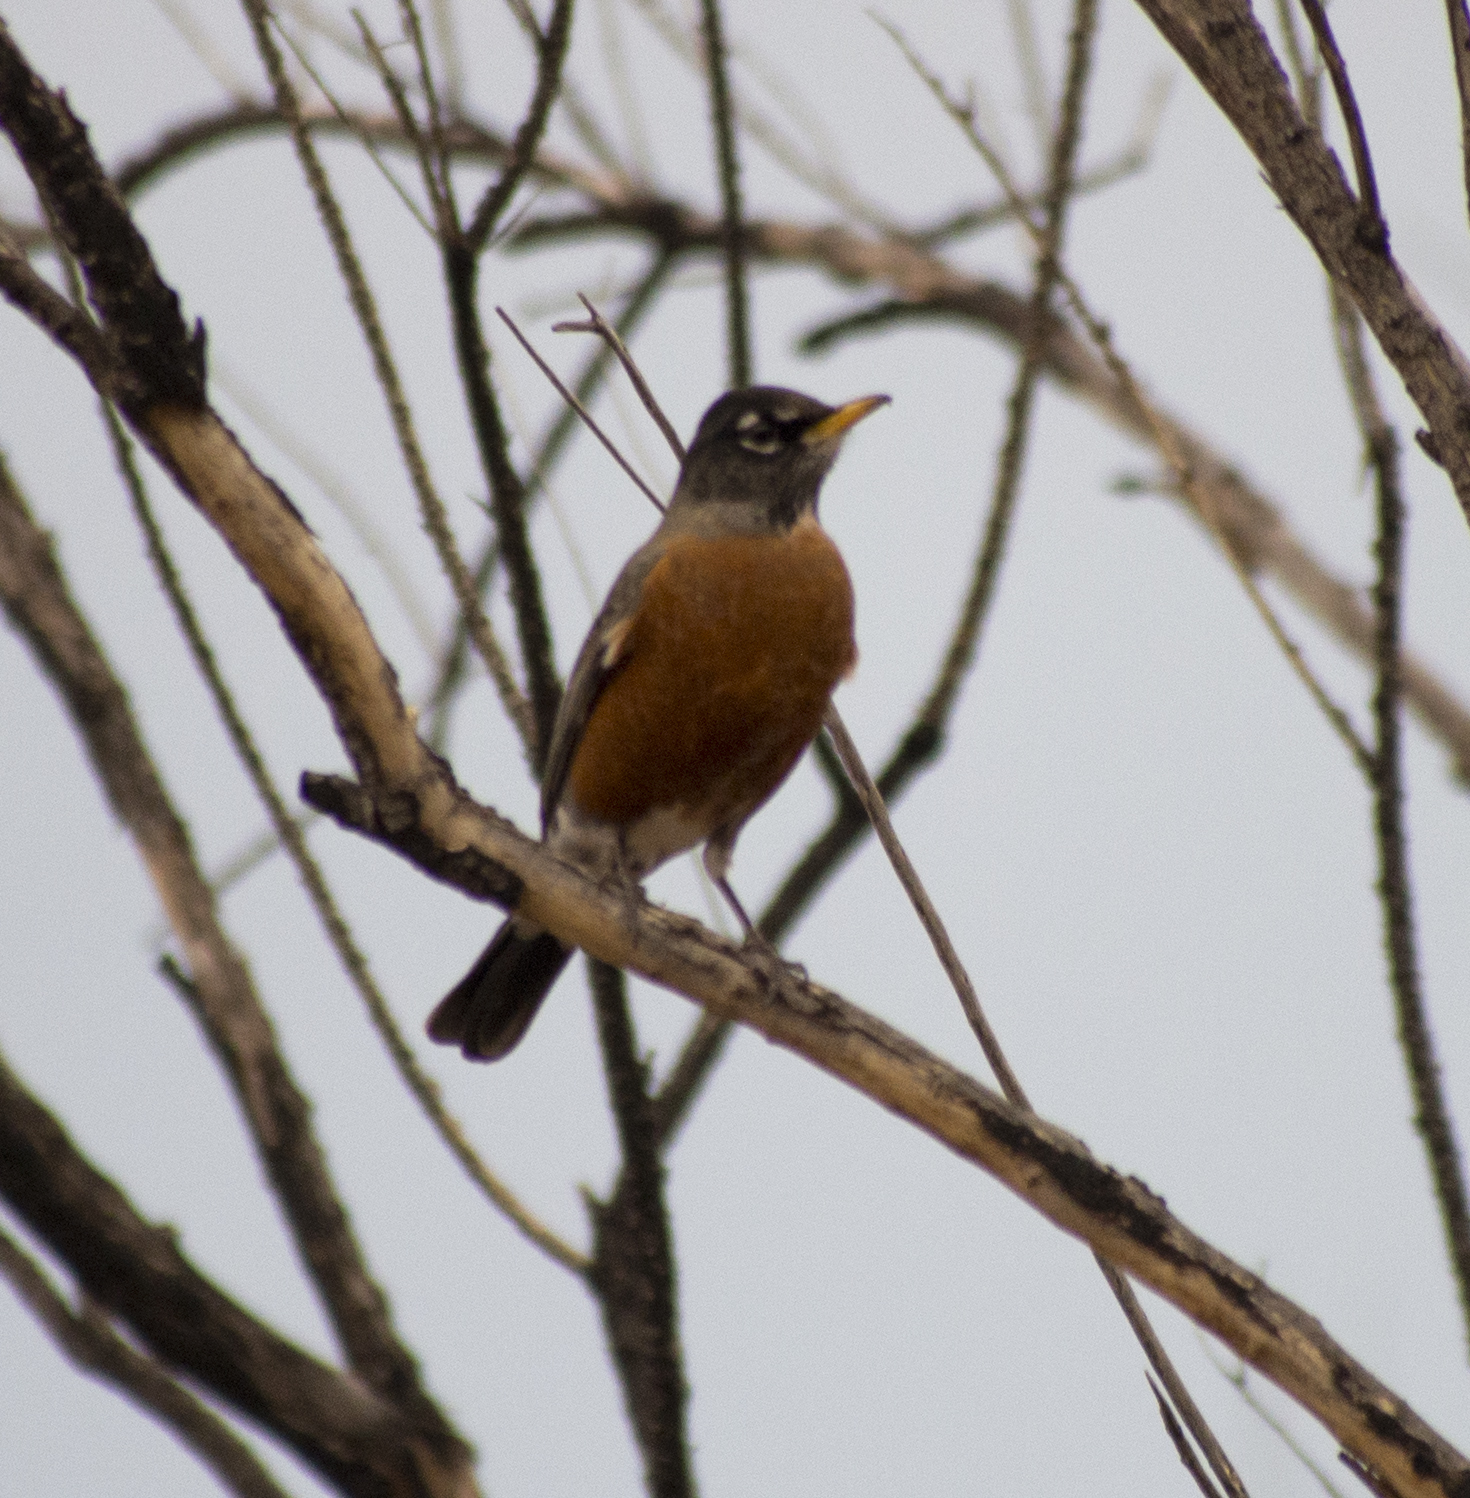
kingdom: Animalia
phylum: Chordata
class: Aves
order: Passeriformes
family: Turdidae
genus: Turdus
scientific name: Turdus migratorius
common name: American robin
